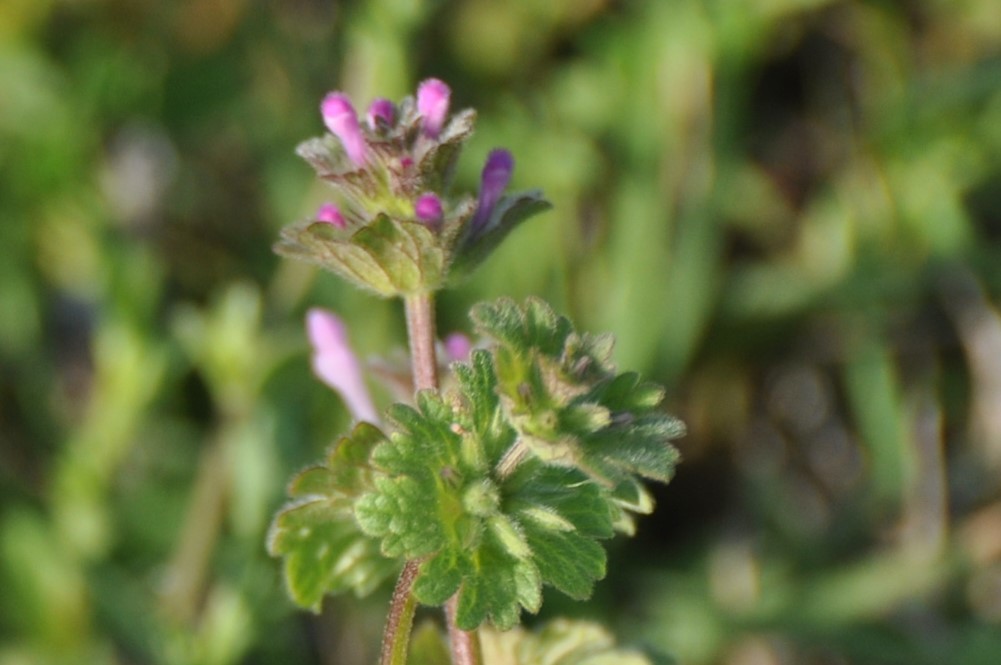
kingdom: Plantae
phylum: Tracheophyta
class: Magnoliopsida
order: Lamiales
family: Lamiaceae
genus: Lamium
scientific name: Lamium amplexicaule
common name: Henbit dead-nettle
